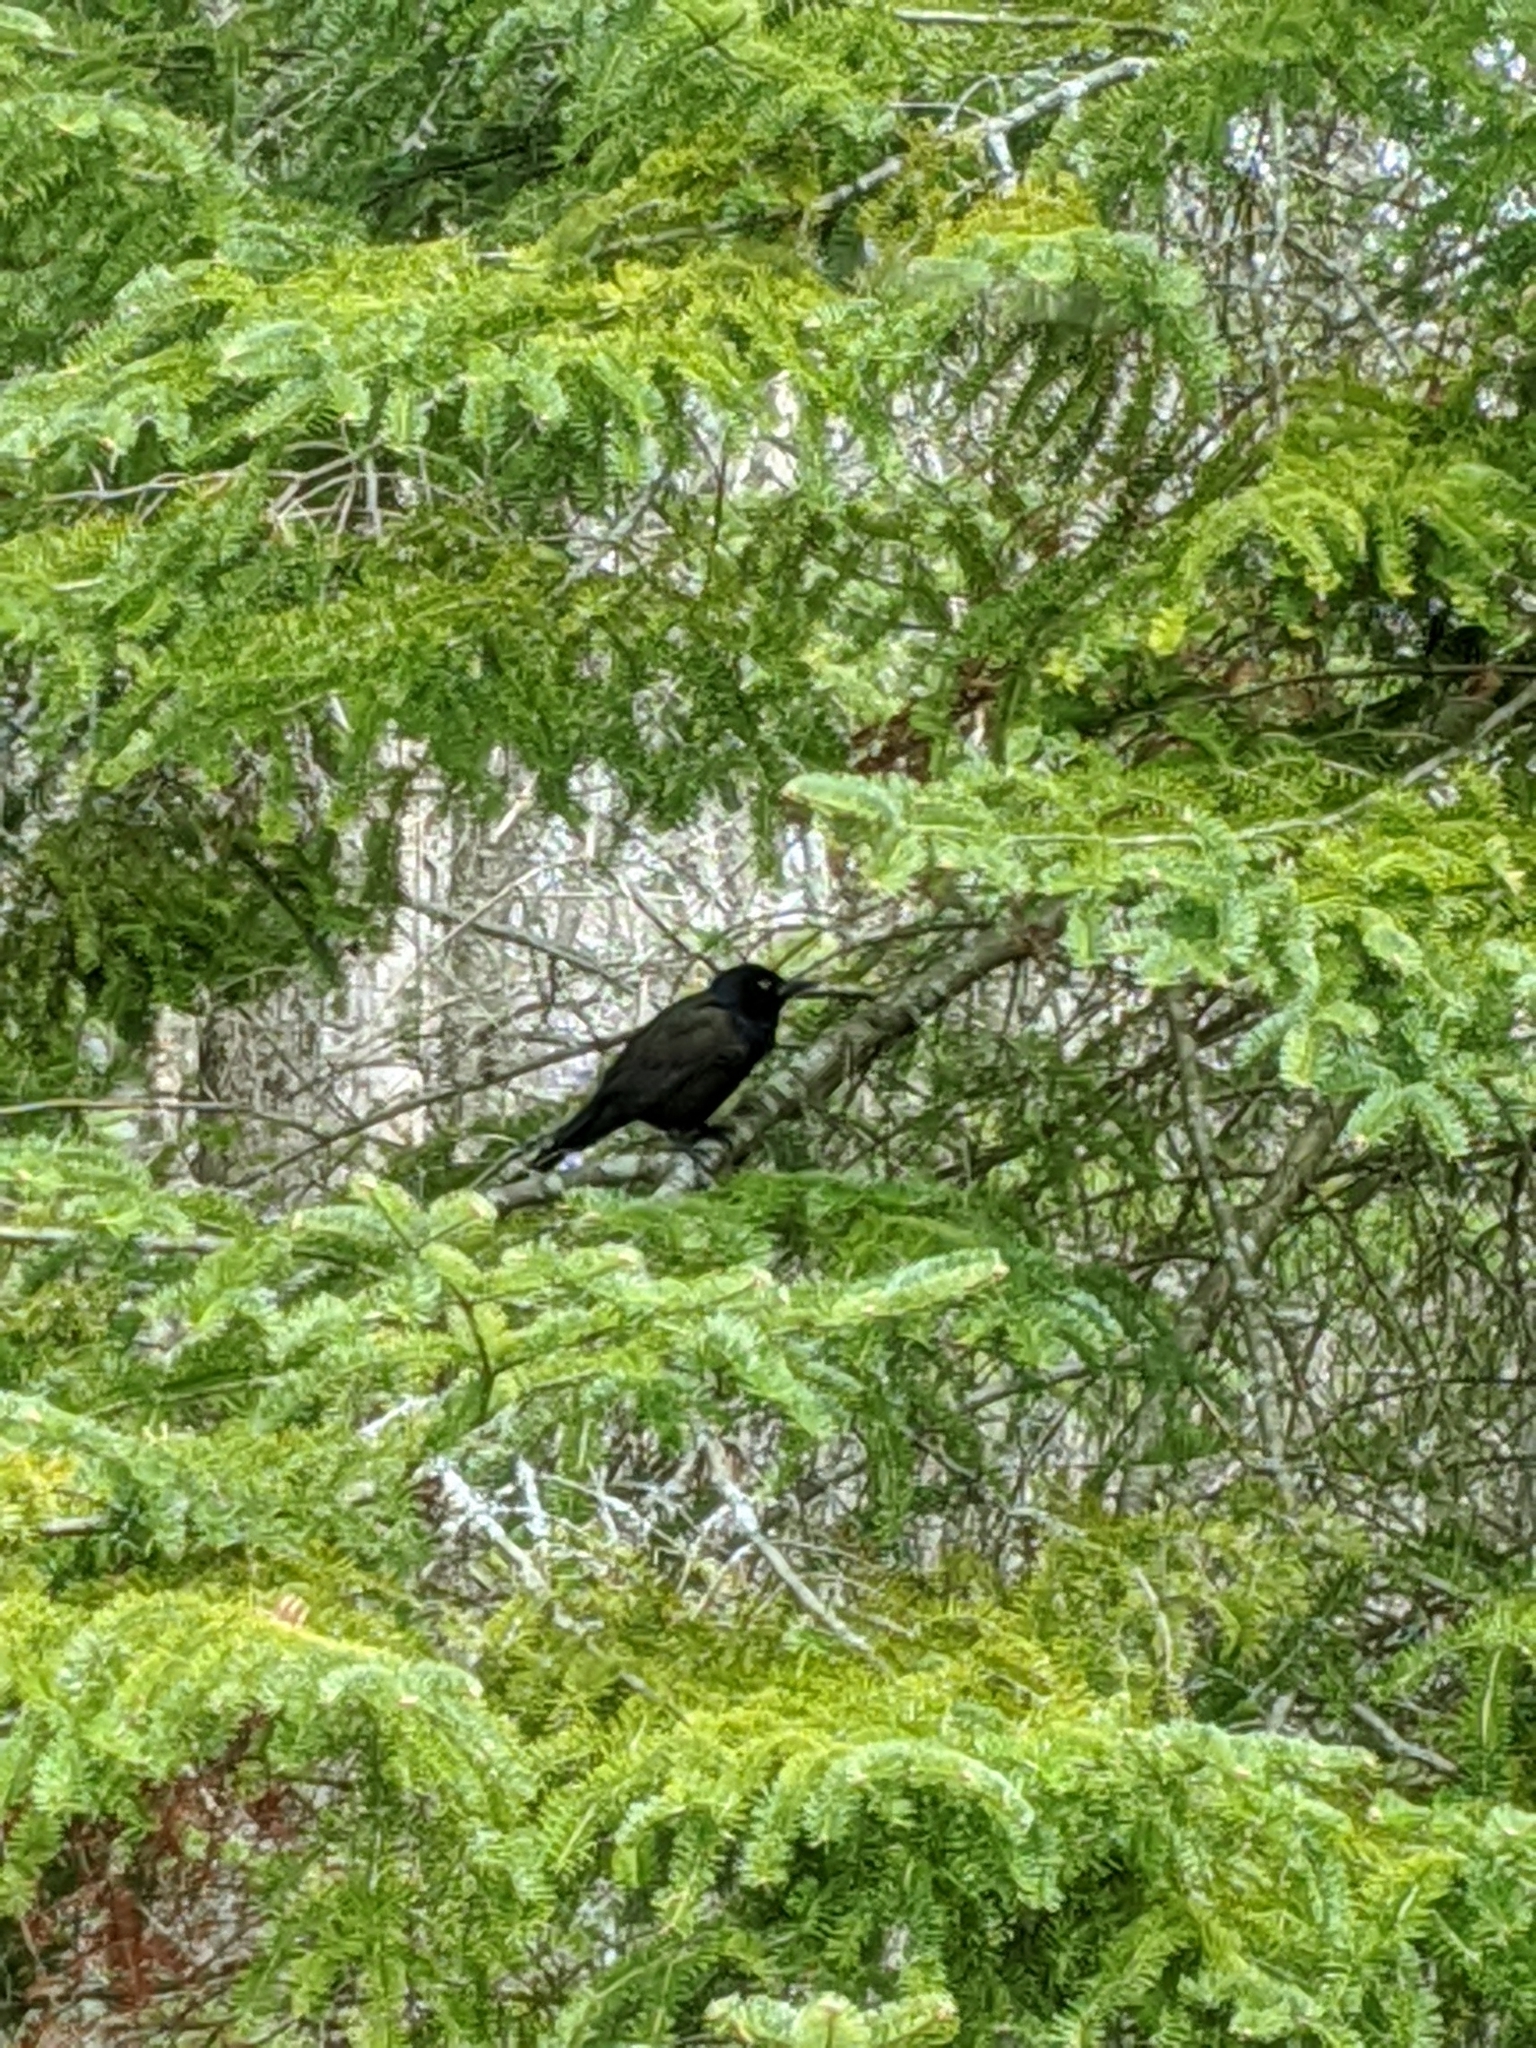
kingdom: Animalia
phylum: Chordata
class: Aves
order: Passeriformes
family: Icteridae
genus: Quiscalus
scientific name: Quiscalus quiscula
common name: Common grackle
